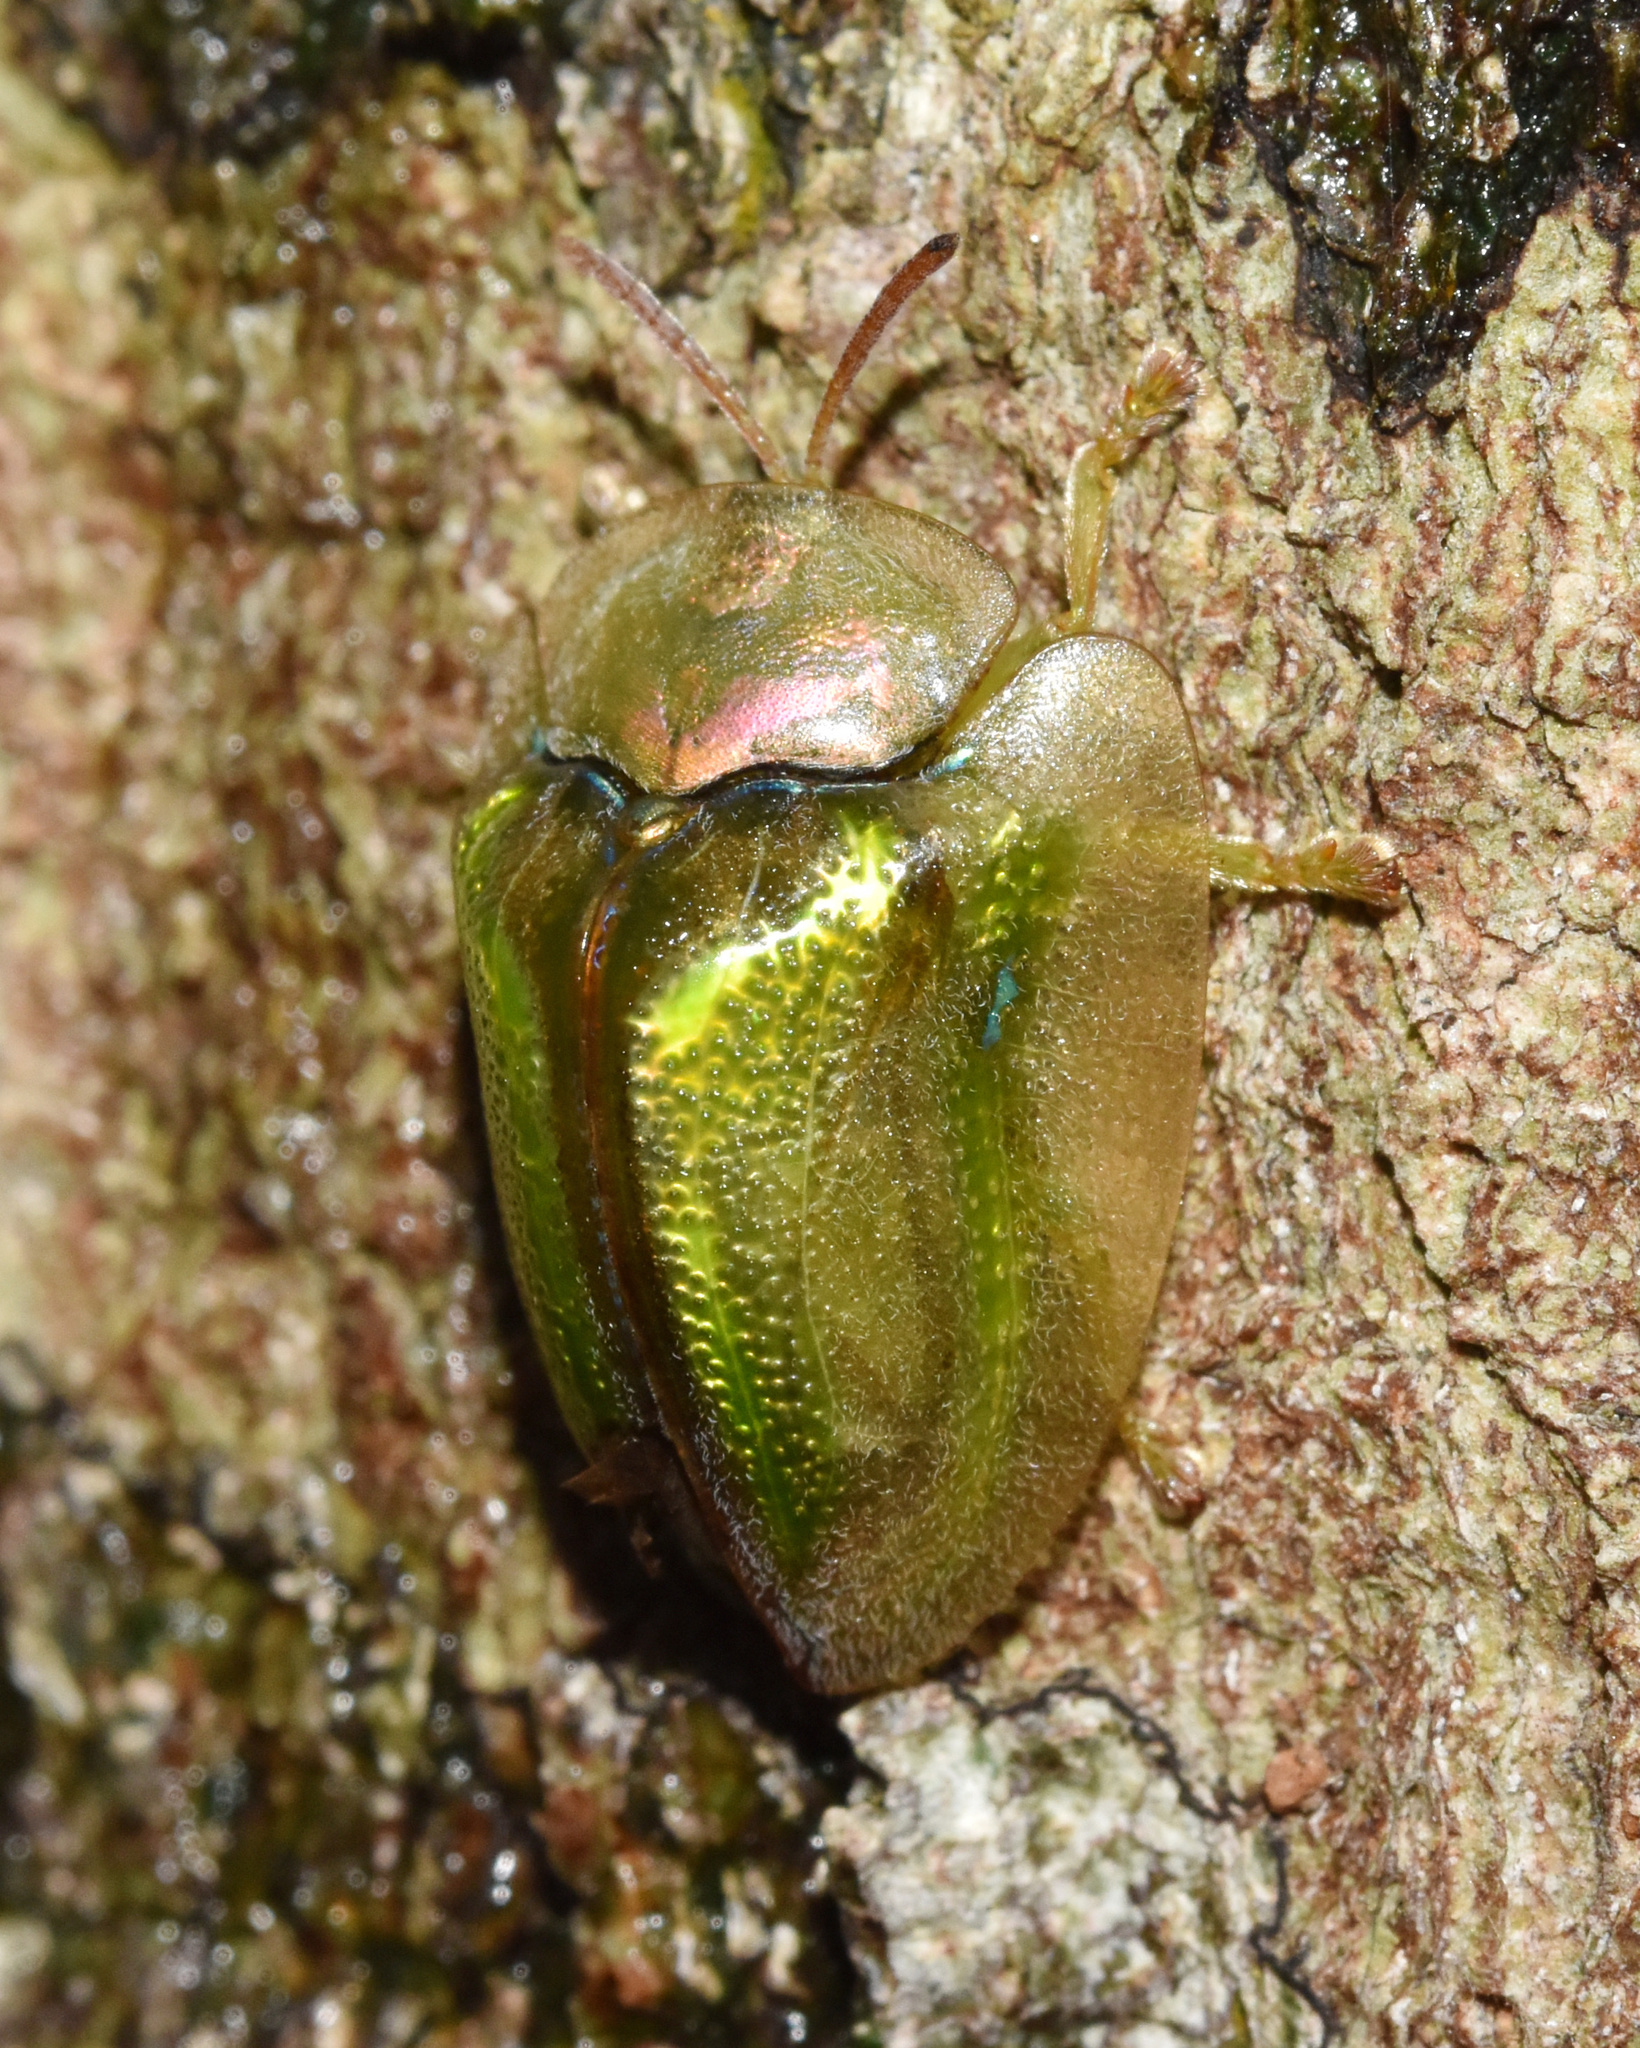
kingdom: Animalia
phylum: Arthropoda
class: Insecta
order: Coleoptera
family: Chrysomelidae
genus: Basipta
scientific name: Basipta stolida
